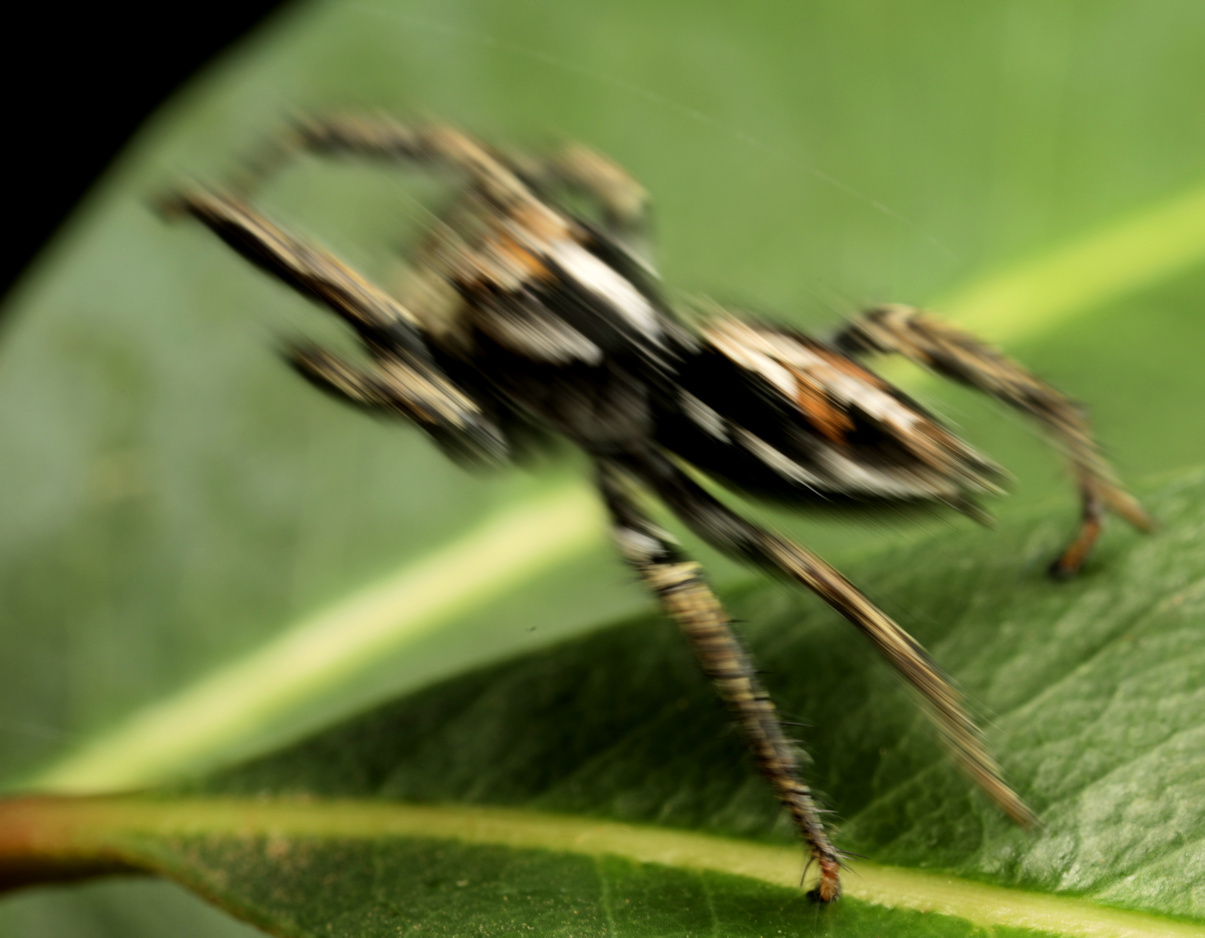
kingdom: Animalia
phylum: Arthropoda
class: Arachnida
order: Araneae
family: Salticidae
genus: Hyllus
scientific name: Hyllus argyrotoxus
